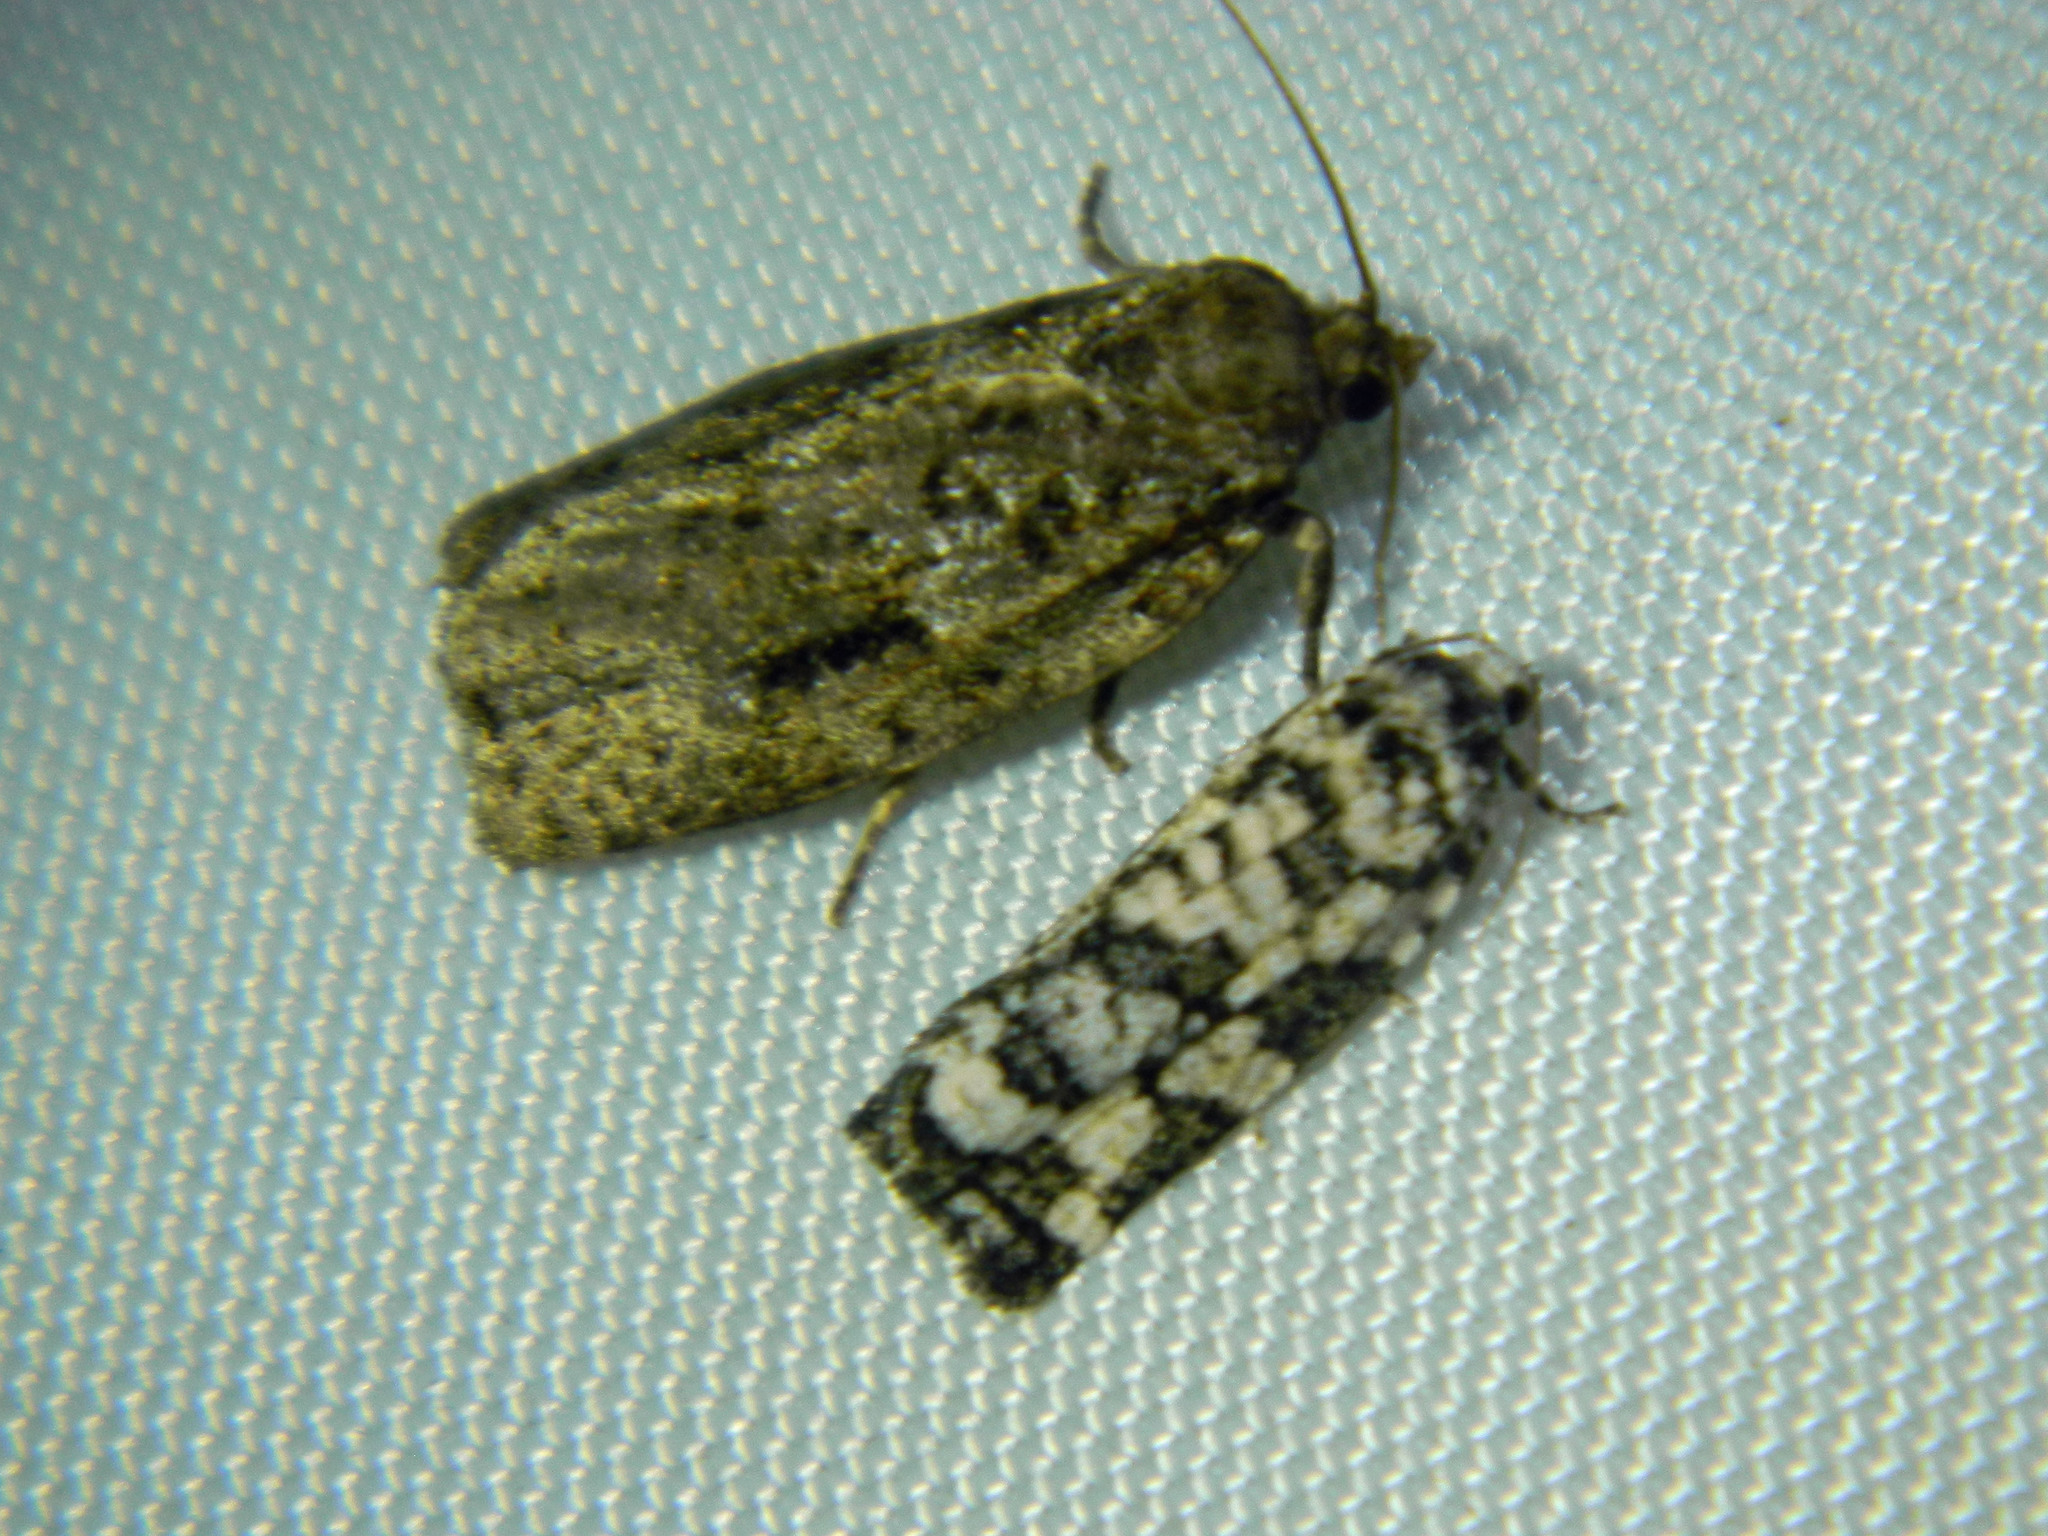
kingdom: Animalia
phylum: Arthropoda
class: Insecta
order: Lepidoptera
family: Tortricidae
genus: Archips
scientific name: Archips packardiana
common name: Spring spruce needle moth
